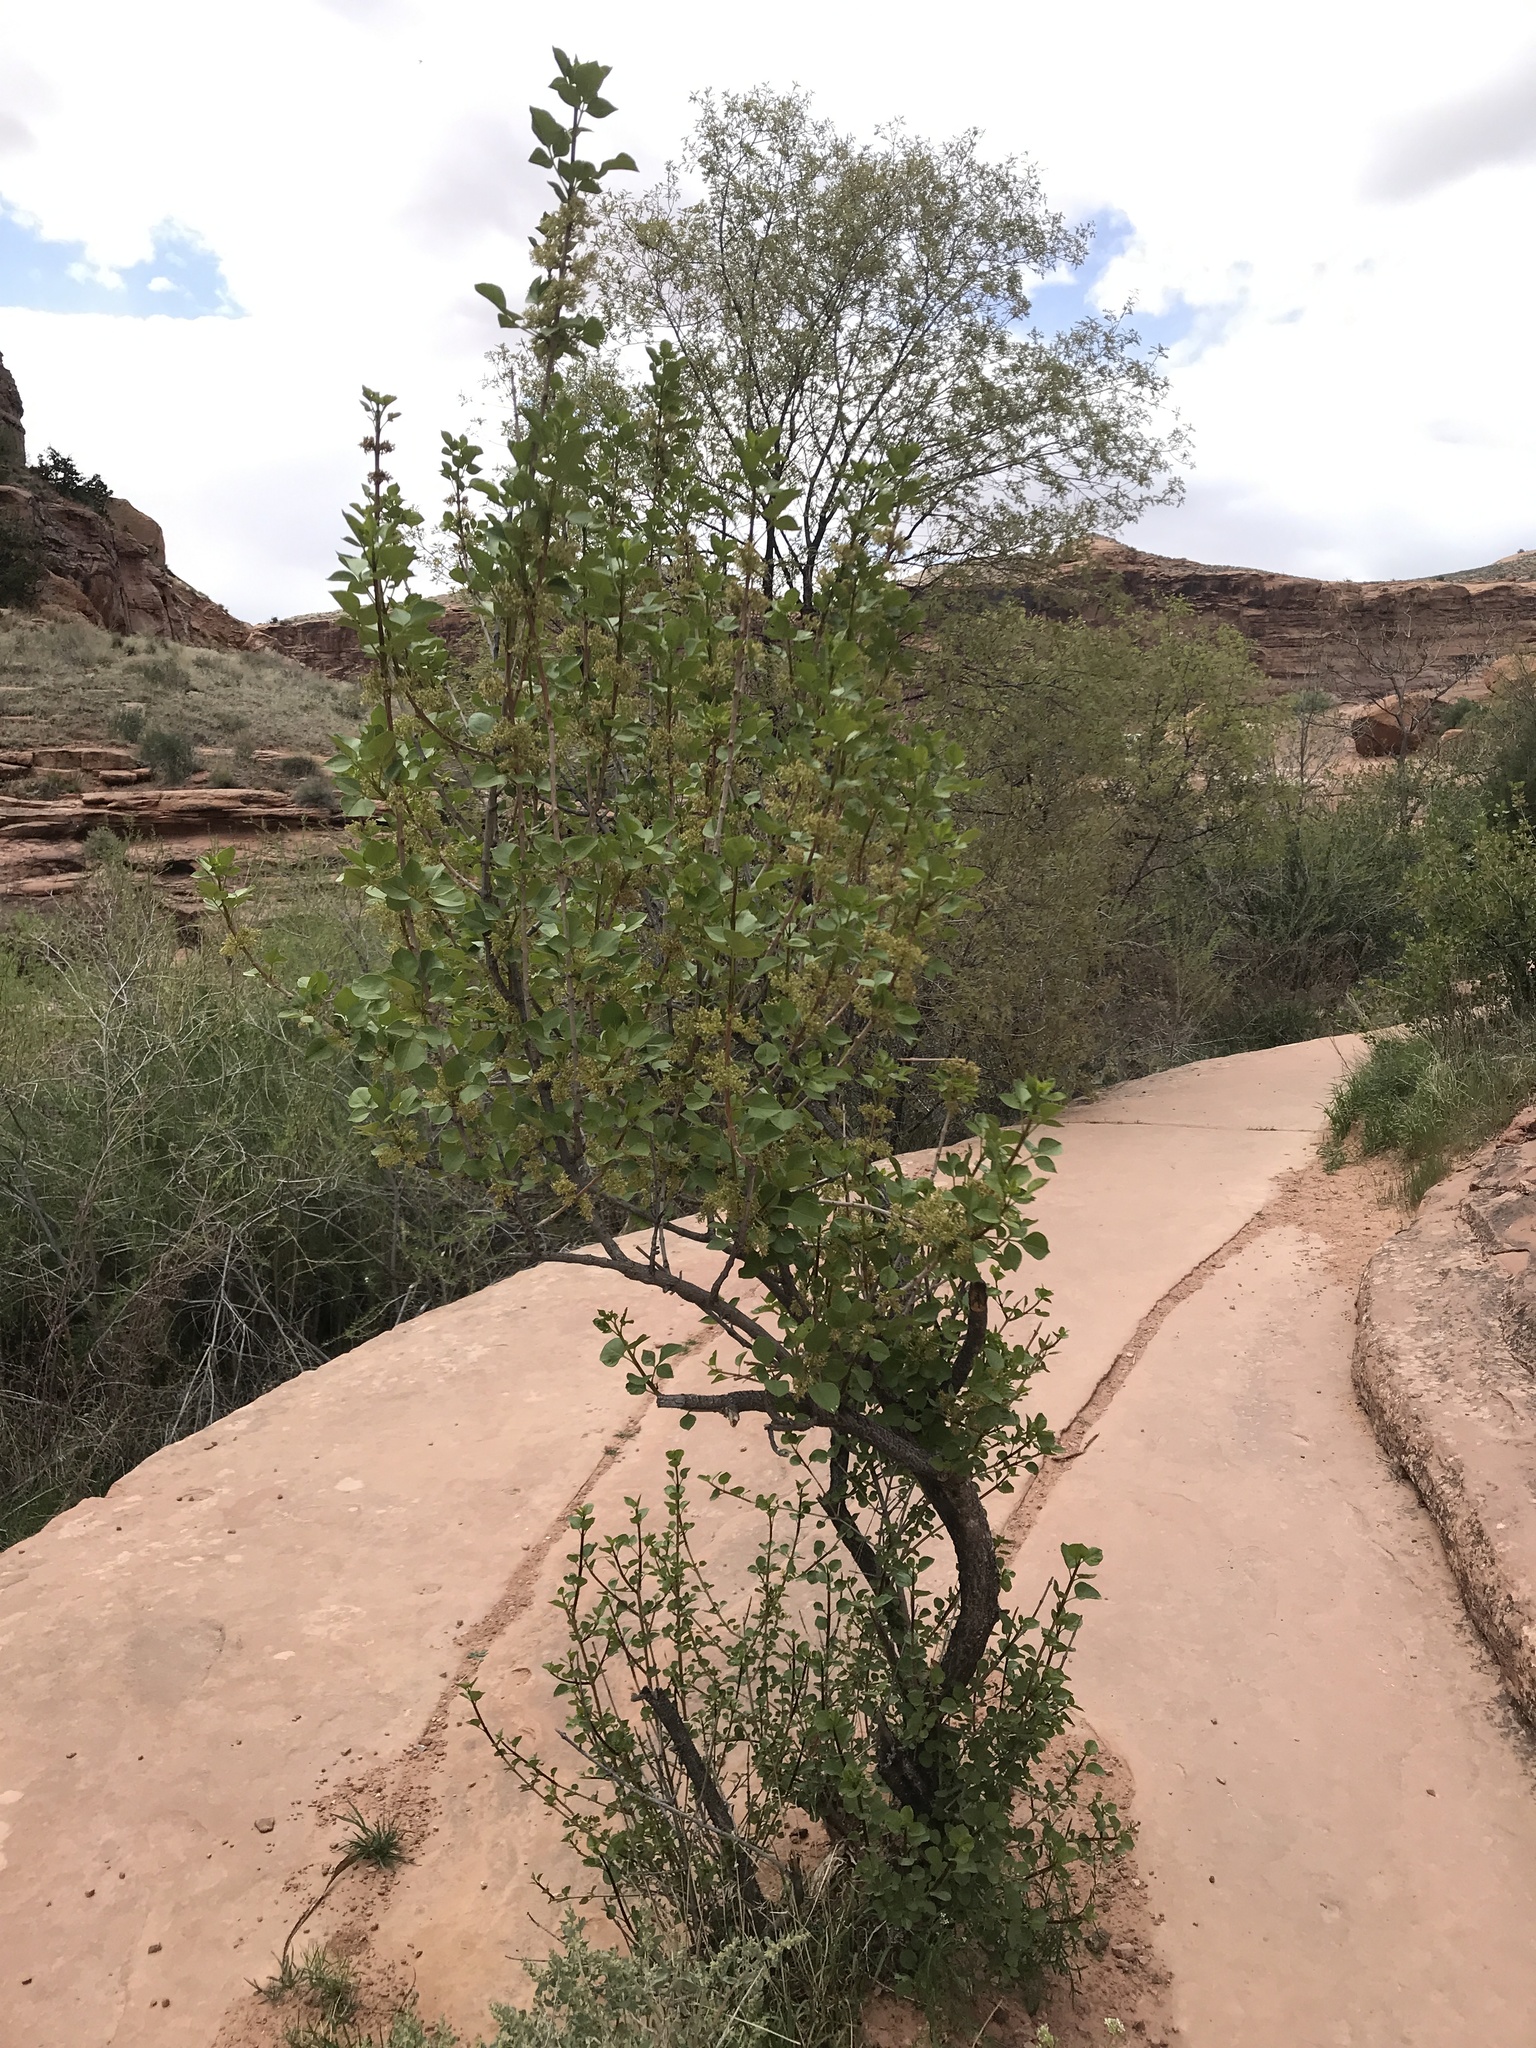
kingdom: Plantae
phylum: Tracheophyta
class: Magnoliopsida
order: Lamiales
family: Oleaceae
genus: Fraxinus
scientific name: Fraxinus anomala
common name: Utah ash
